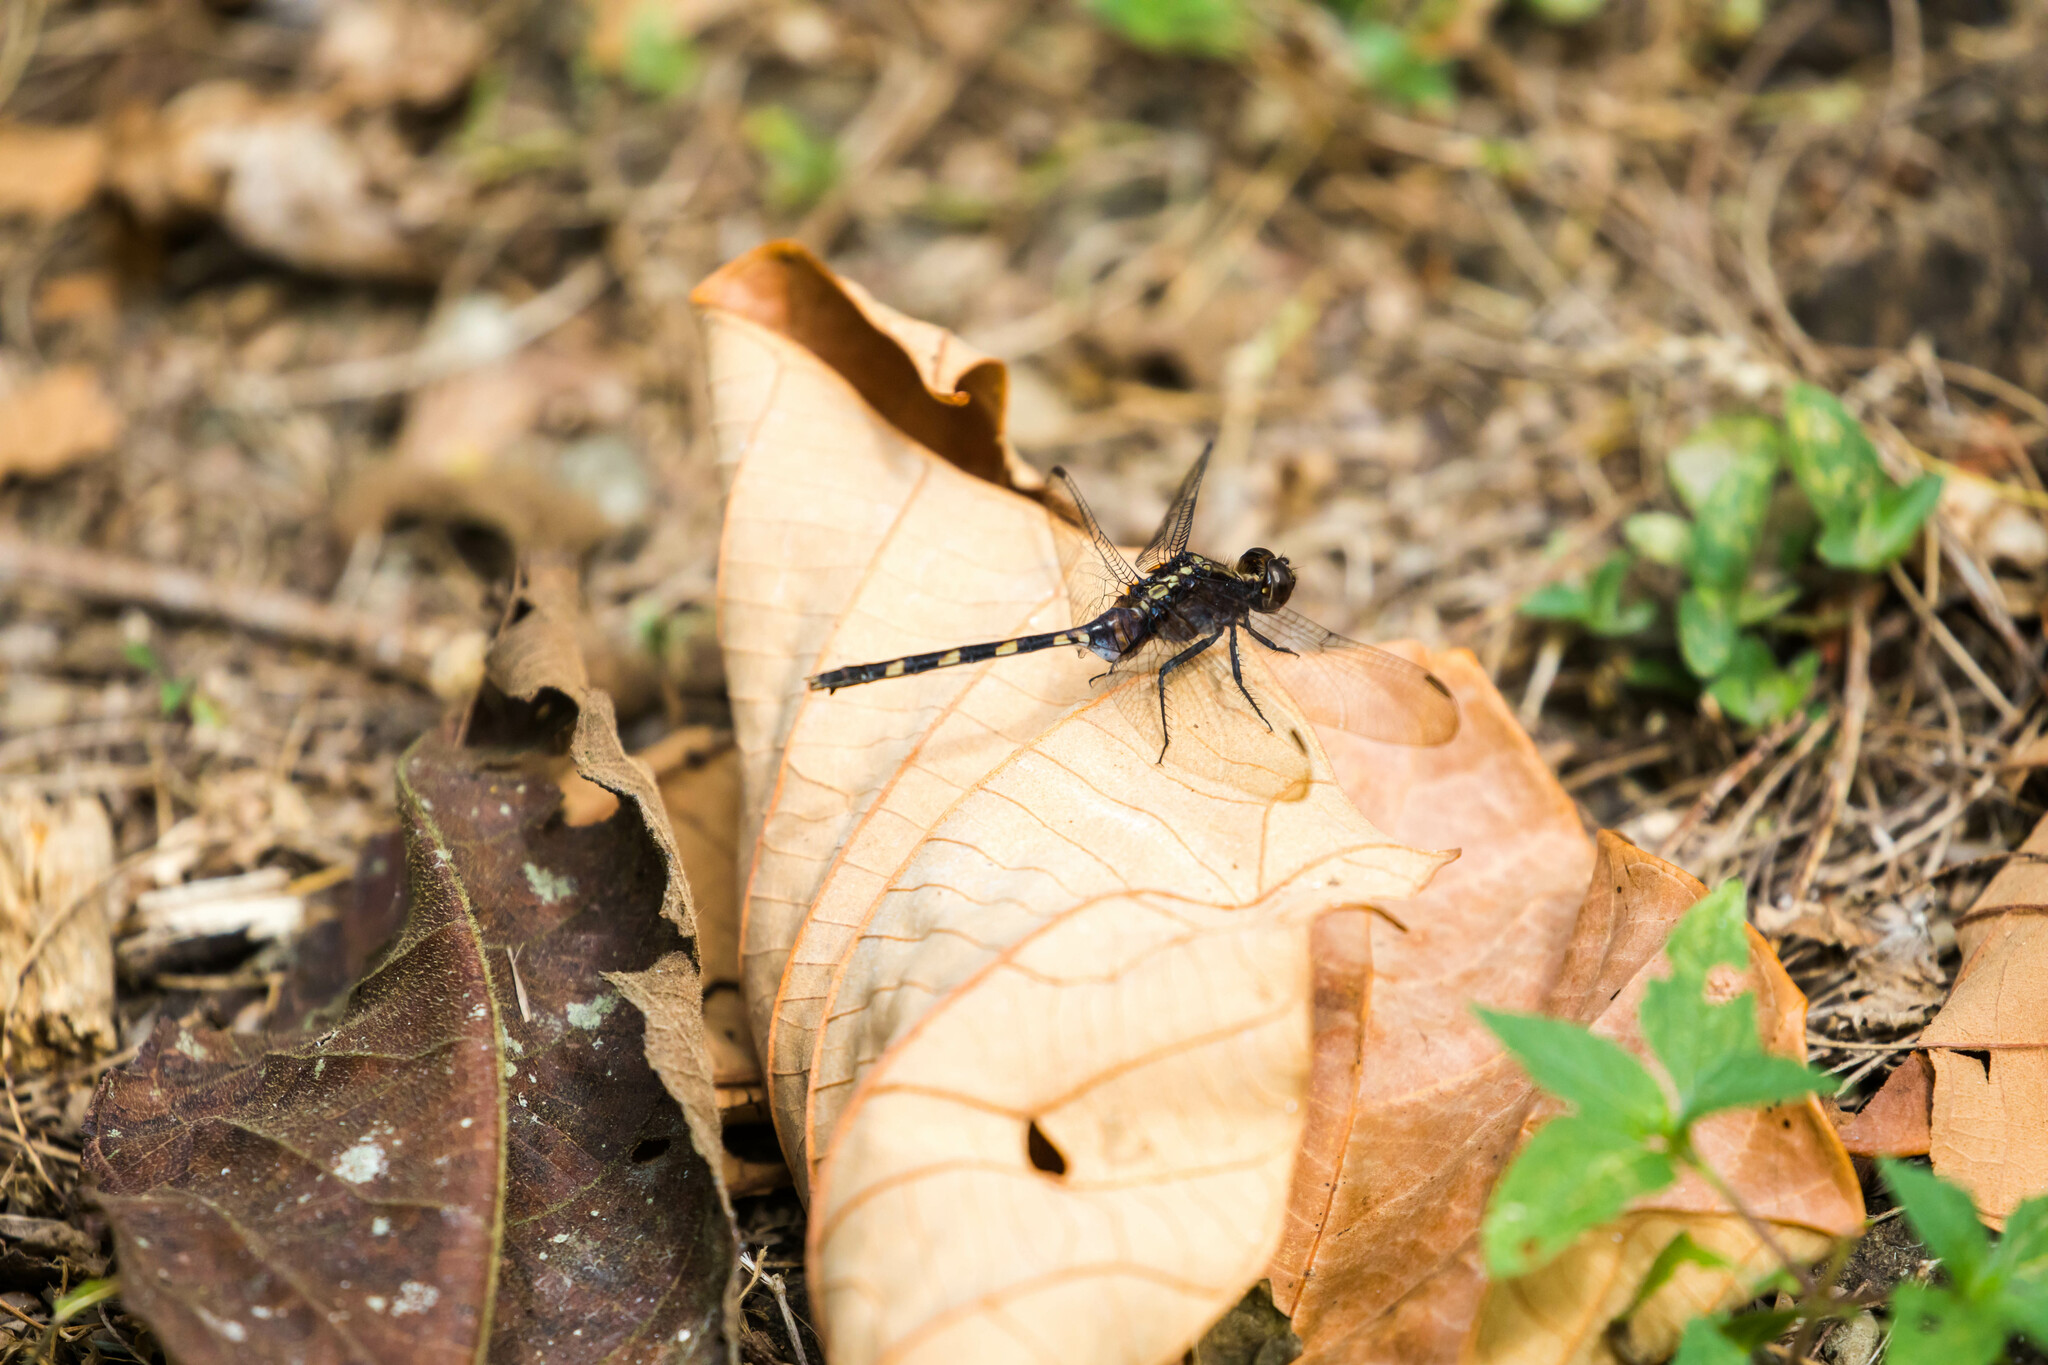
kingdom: Animalia
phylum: Arthropoda
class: Insecta
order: Odonata
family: Libellulidae
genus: Erythemis
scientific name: Erythemis plebeja
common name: Pin-tailed pondhawk
